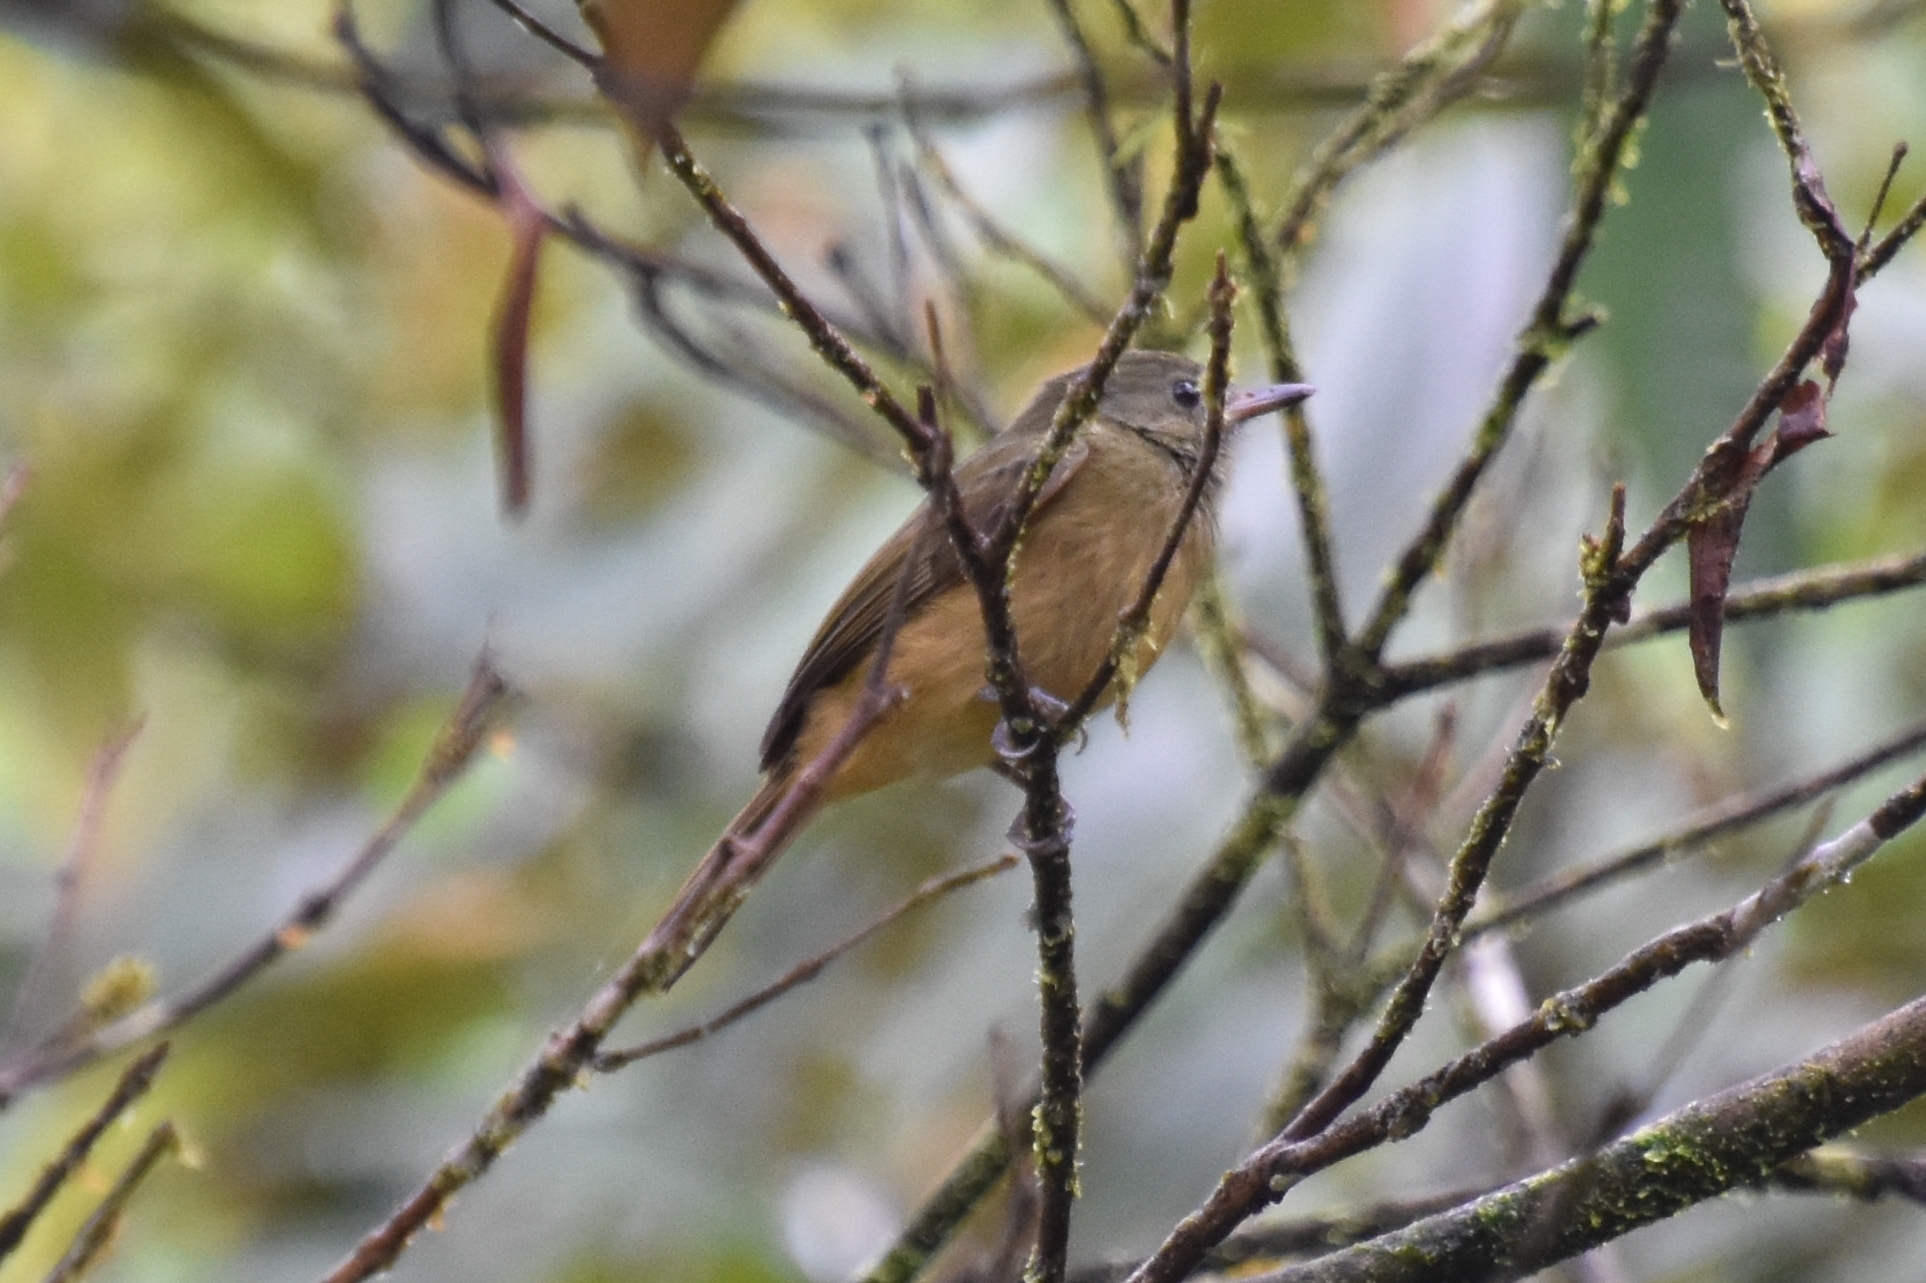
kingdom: Animalia
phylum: Chordata
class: Aves
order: Passeriformes
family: Tyrannidae
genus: Mionectes
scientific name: Mionectes oleagineus
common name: Ochre-bellied flycatcher
